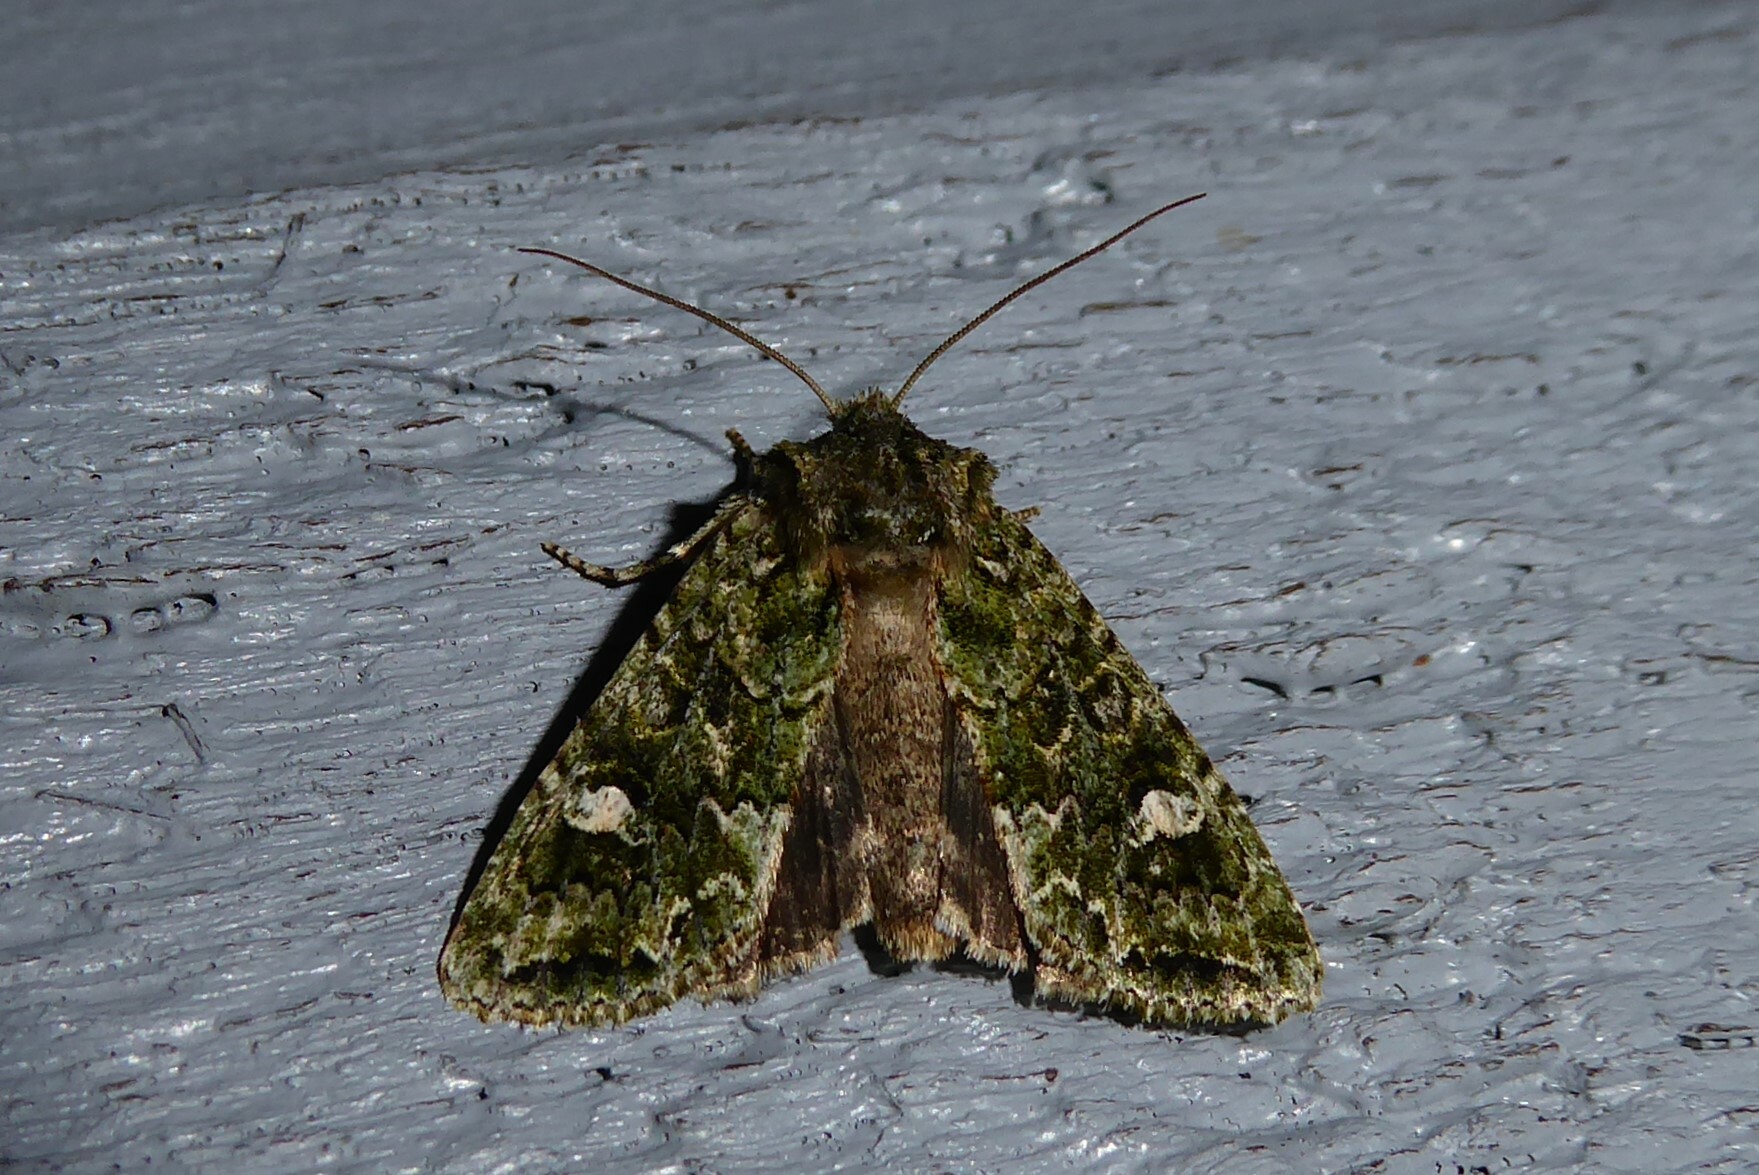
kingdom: Animalia
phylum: Arthropoda
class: Insecta
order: Lepidoptera
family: Noctuidae
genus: Ichneutica
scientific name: Ichneutica
